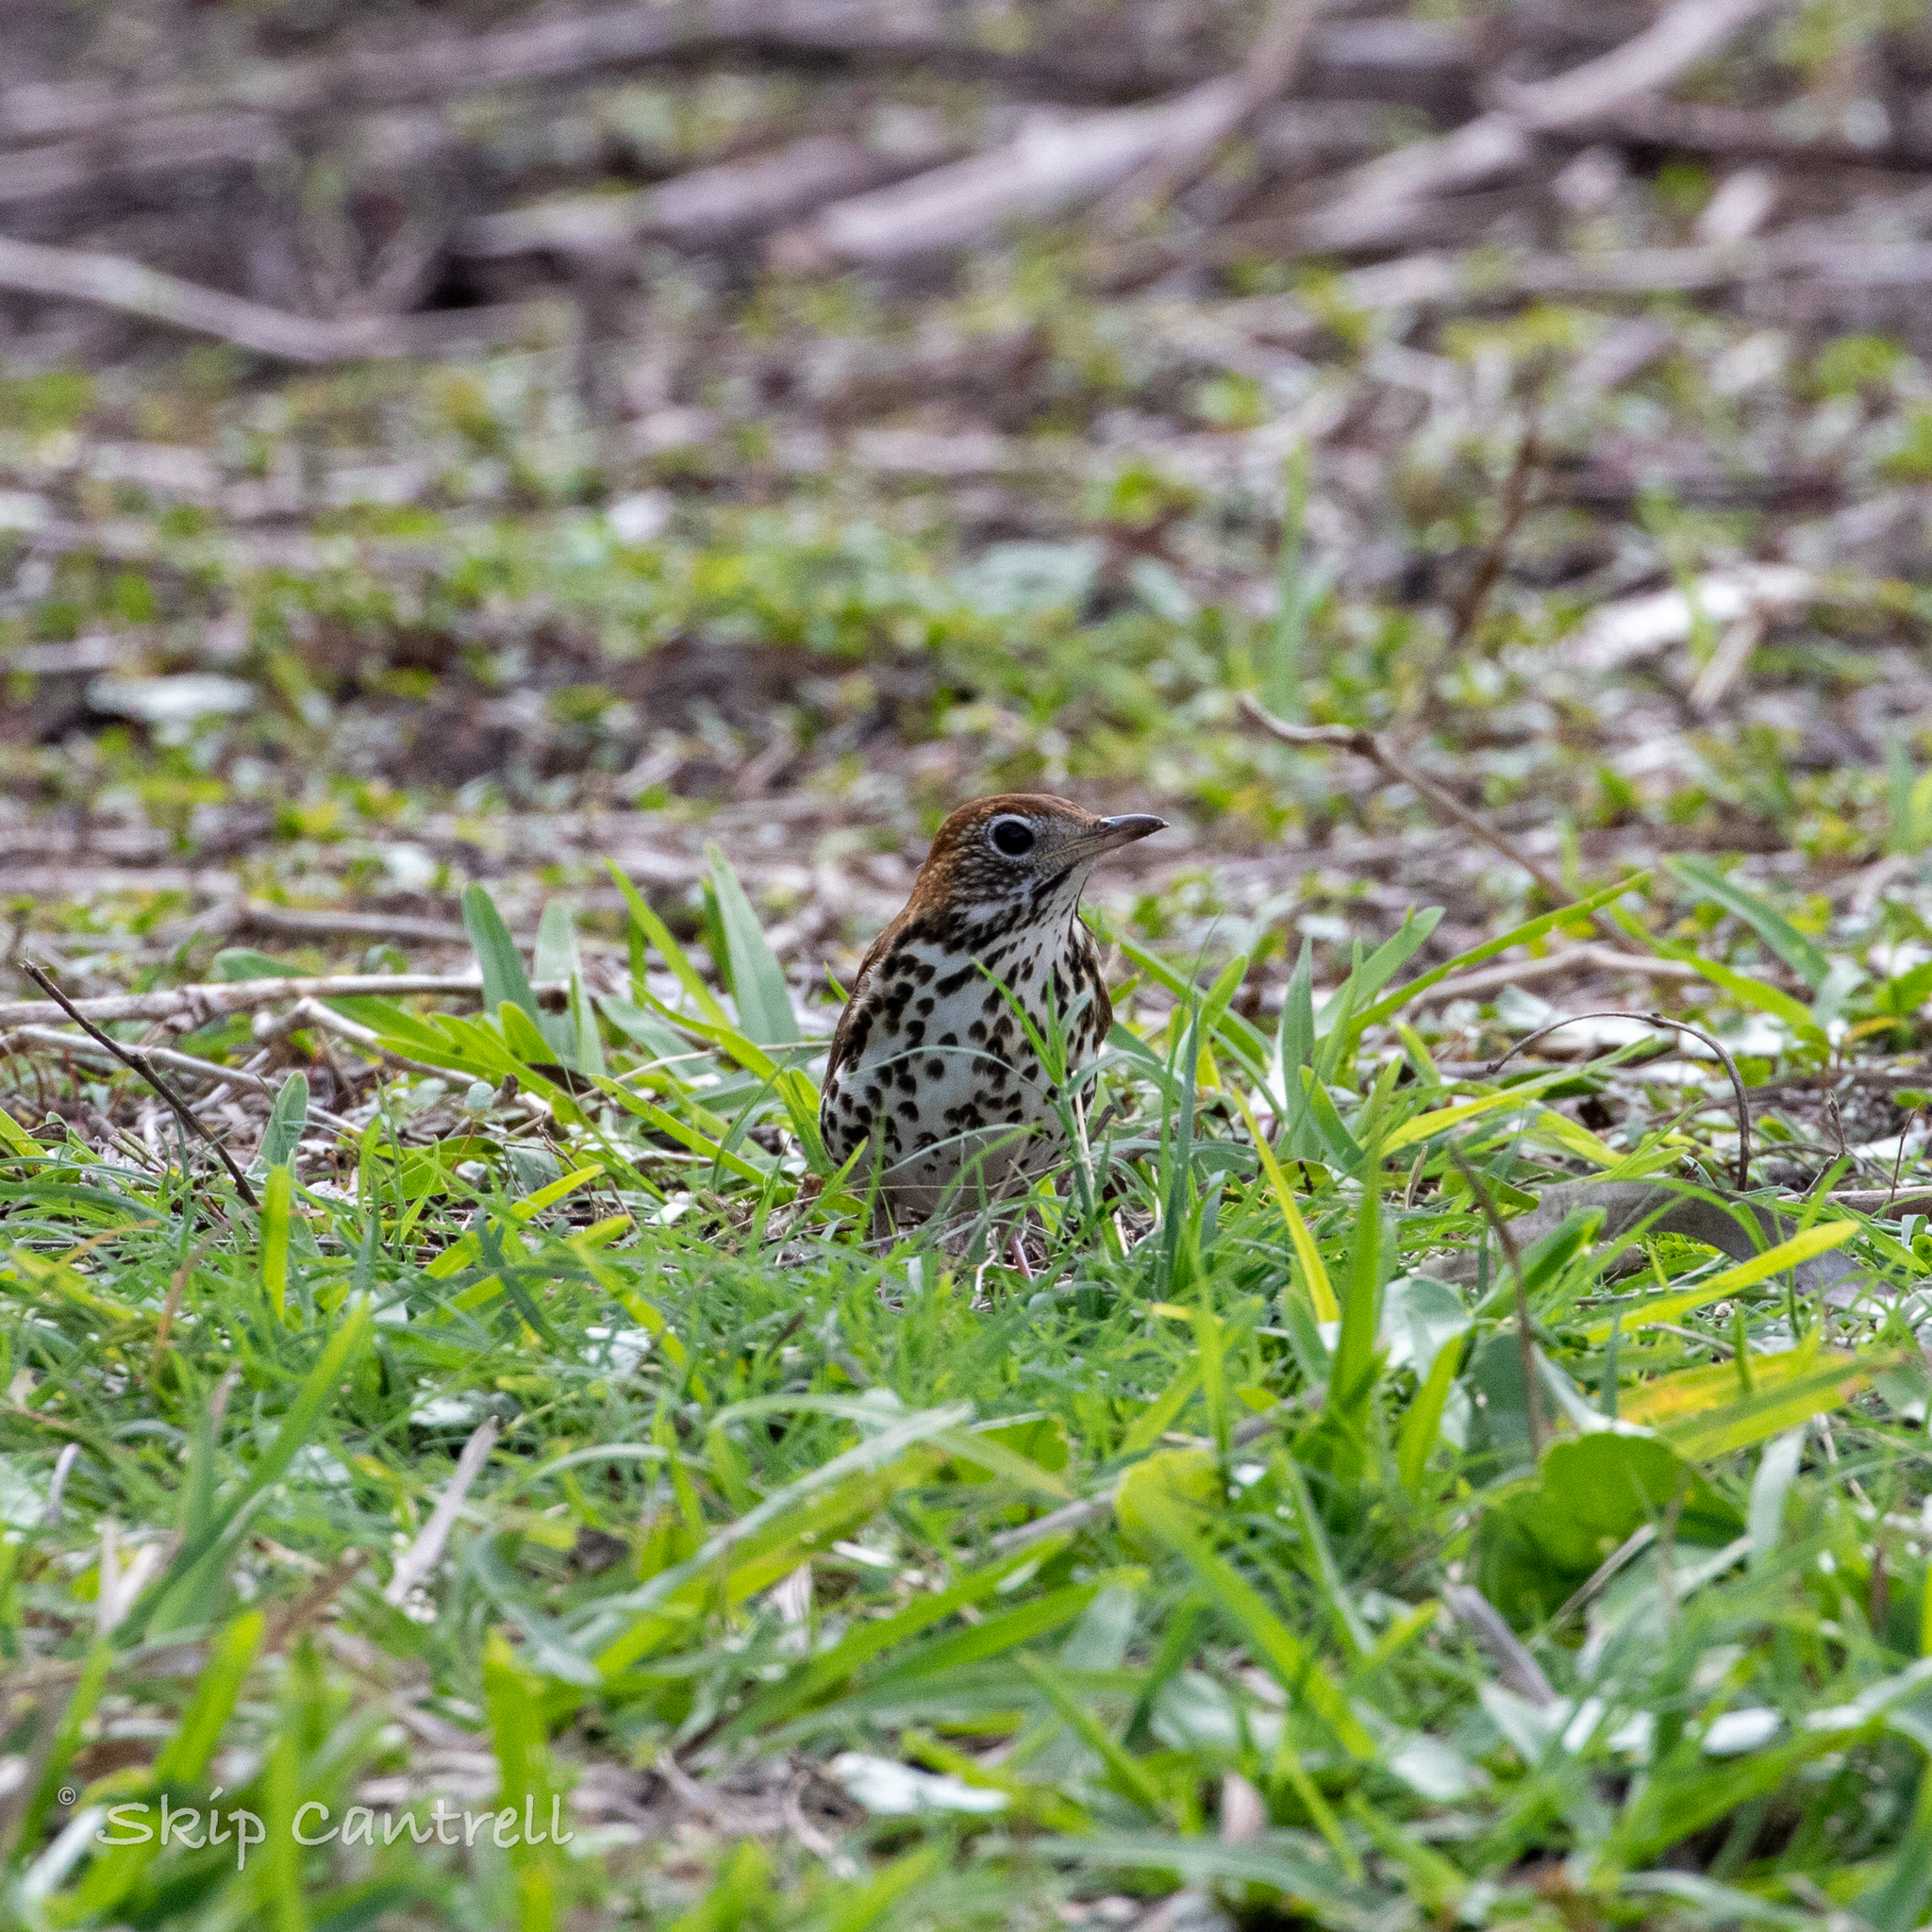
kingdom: Animalia
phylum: Chordata
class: Aves
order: Passeriformes
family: Turdidae
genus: Hylocichla
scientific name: Hylocichla mustelina
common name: Wood thrush
